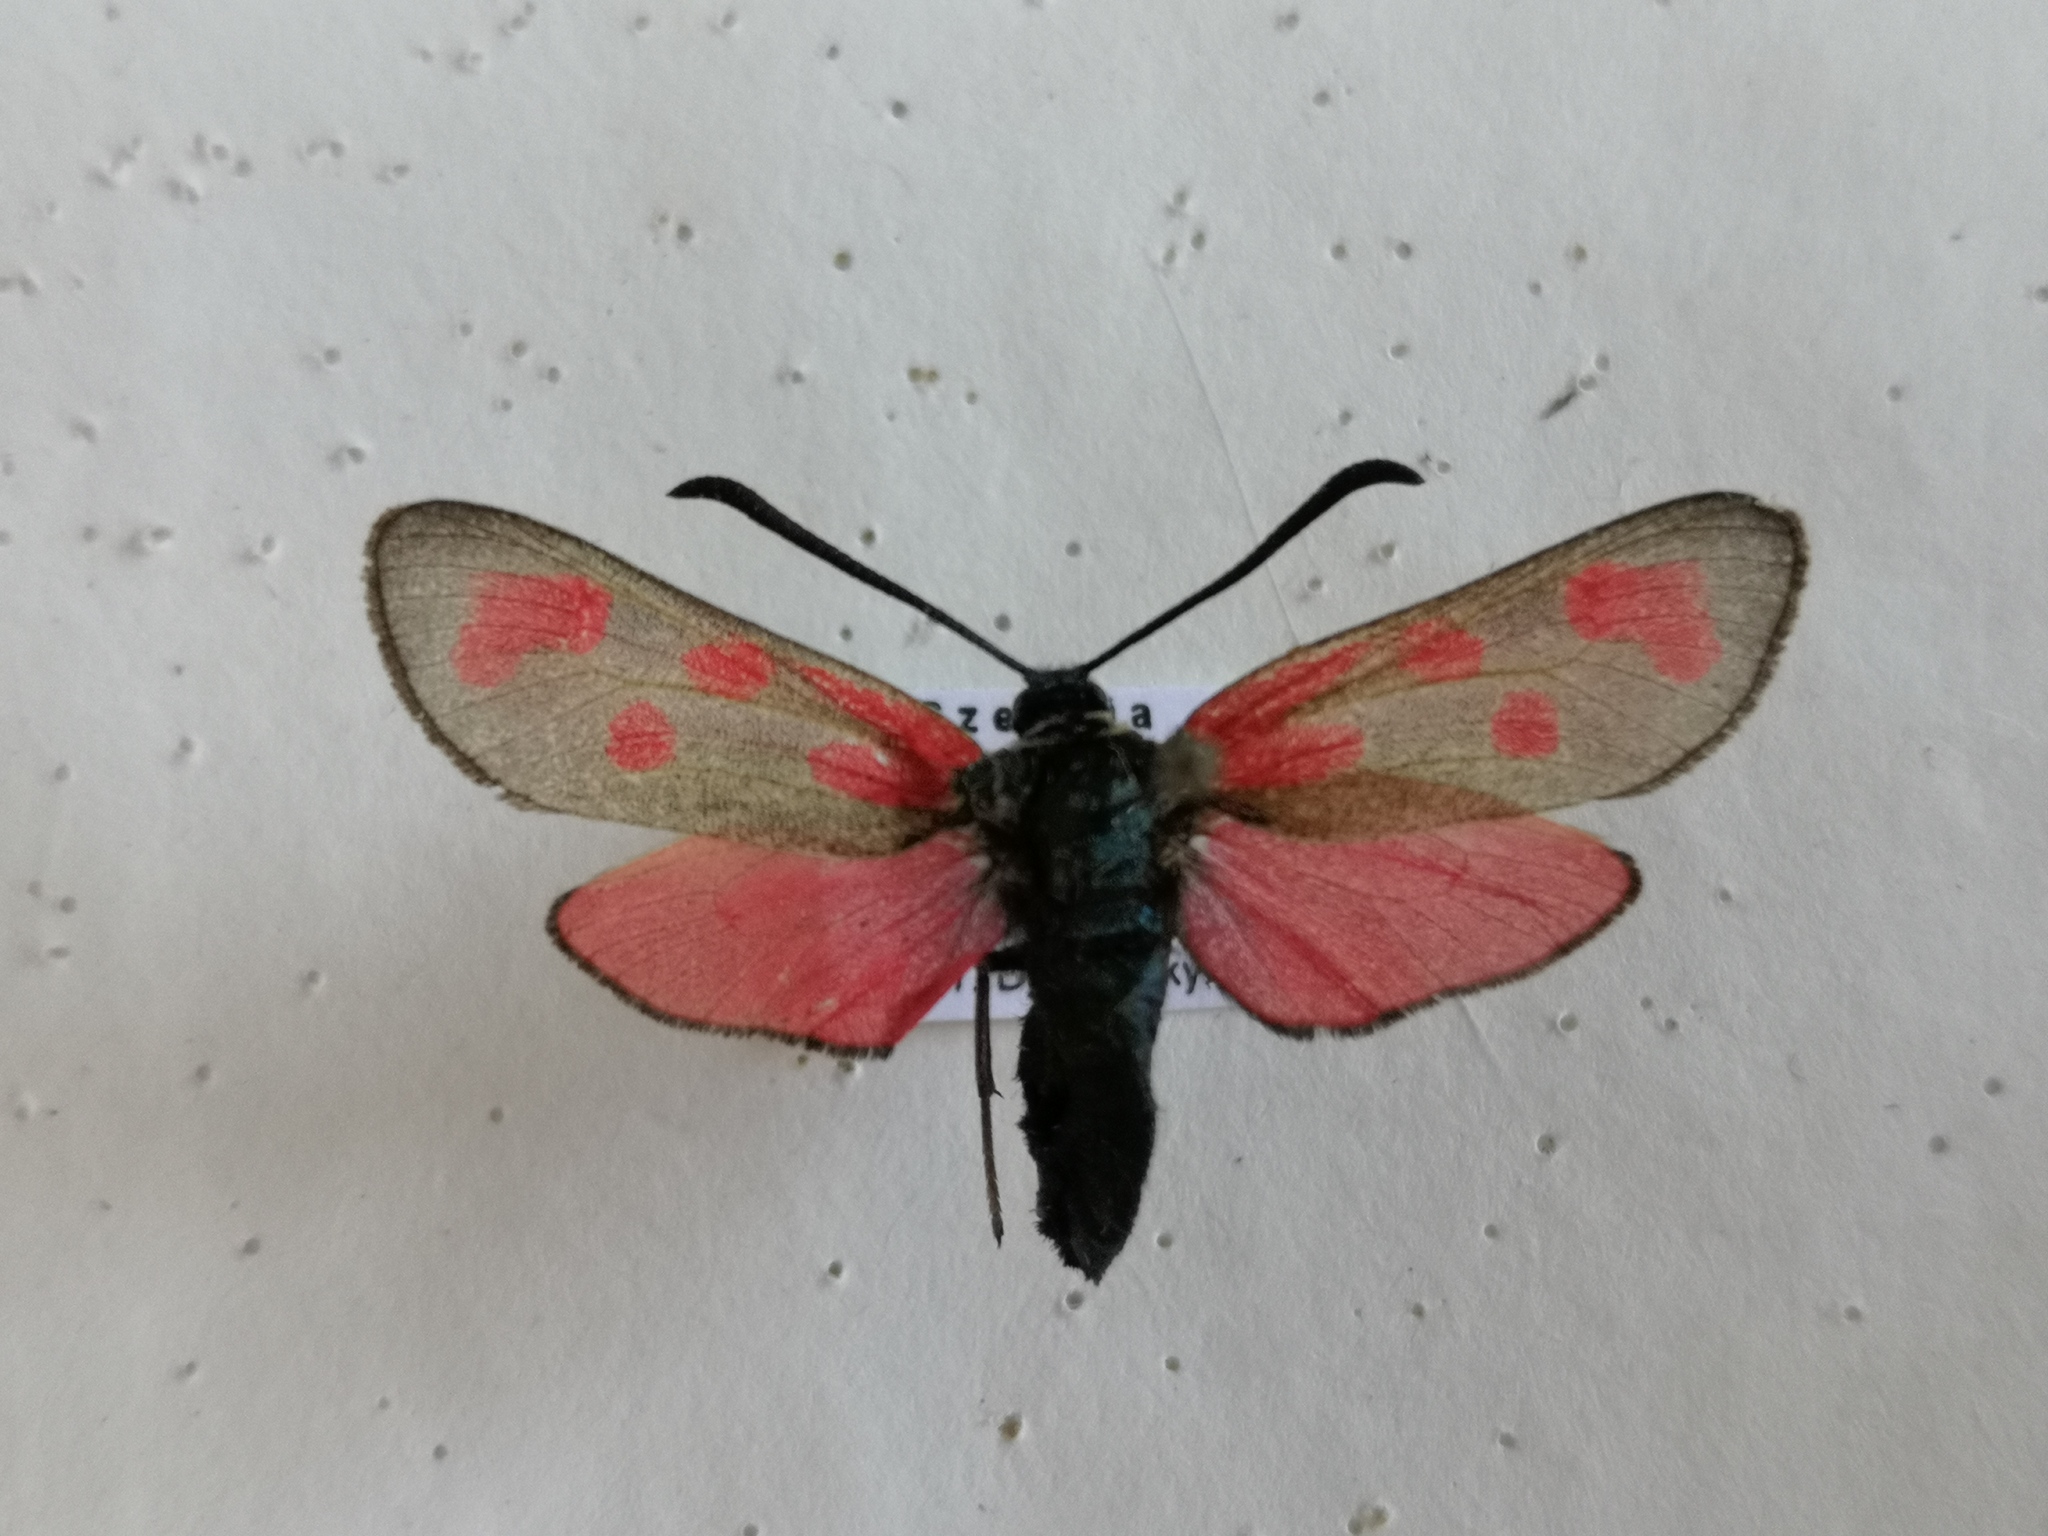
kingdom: Animalia
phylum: Arthropoda
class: Insecta
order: Lepidoptera
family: Zygaenidae
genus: Zygaena
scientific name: Zygaena loti
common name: Slender scotch burnet
